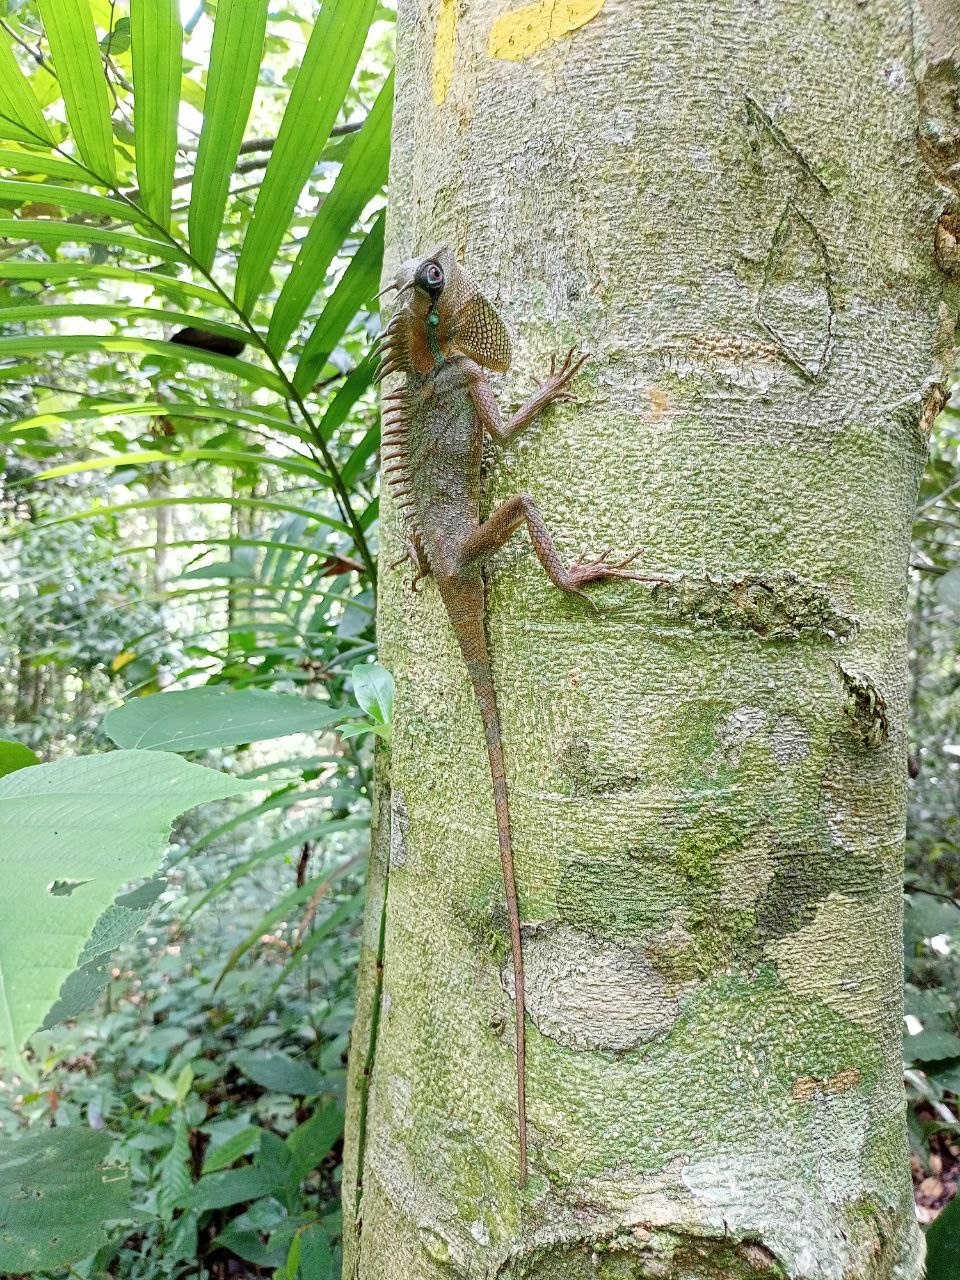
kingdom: Animalia
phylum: Chordata
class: Squamata
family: Agamidae
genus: Acanthosaura
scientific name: Acanthosaura nataliae
